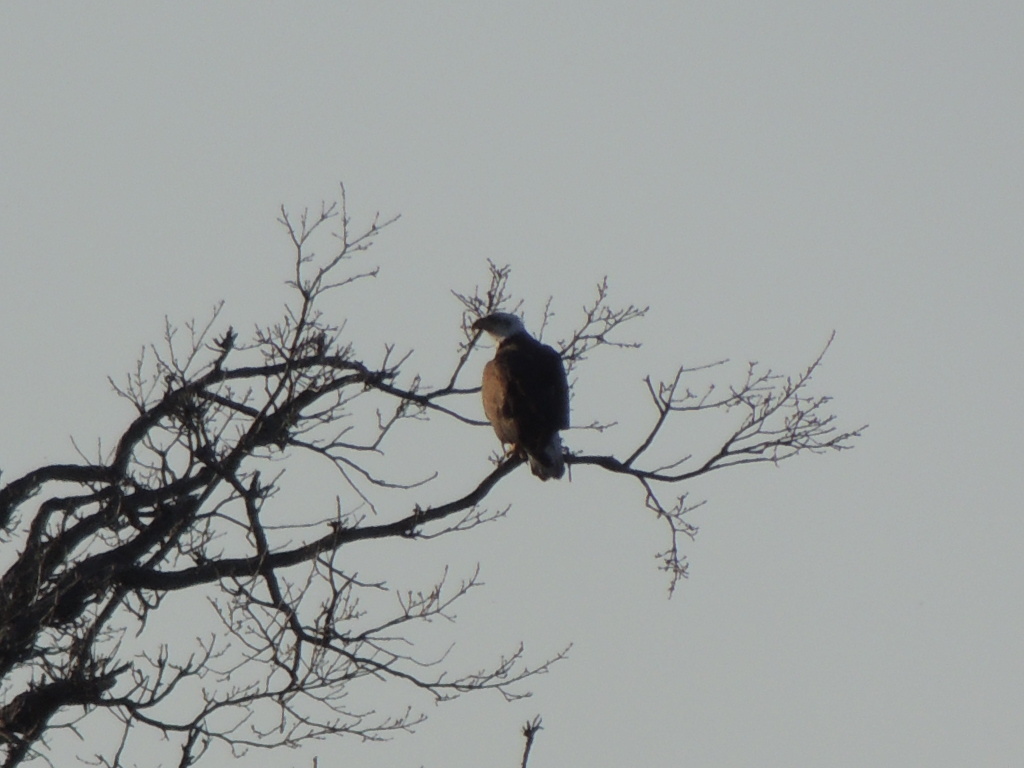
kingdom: Animalia
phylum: Chordata
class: Aves
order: Accipitriformes
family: Accipitridae
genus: Haliaeetus
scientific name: Haliaeetus leucocephalus
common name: Bald eagle
